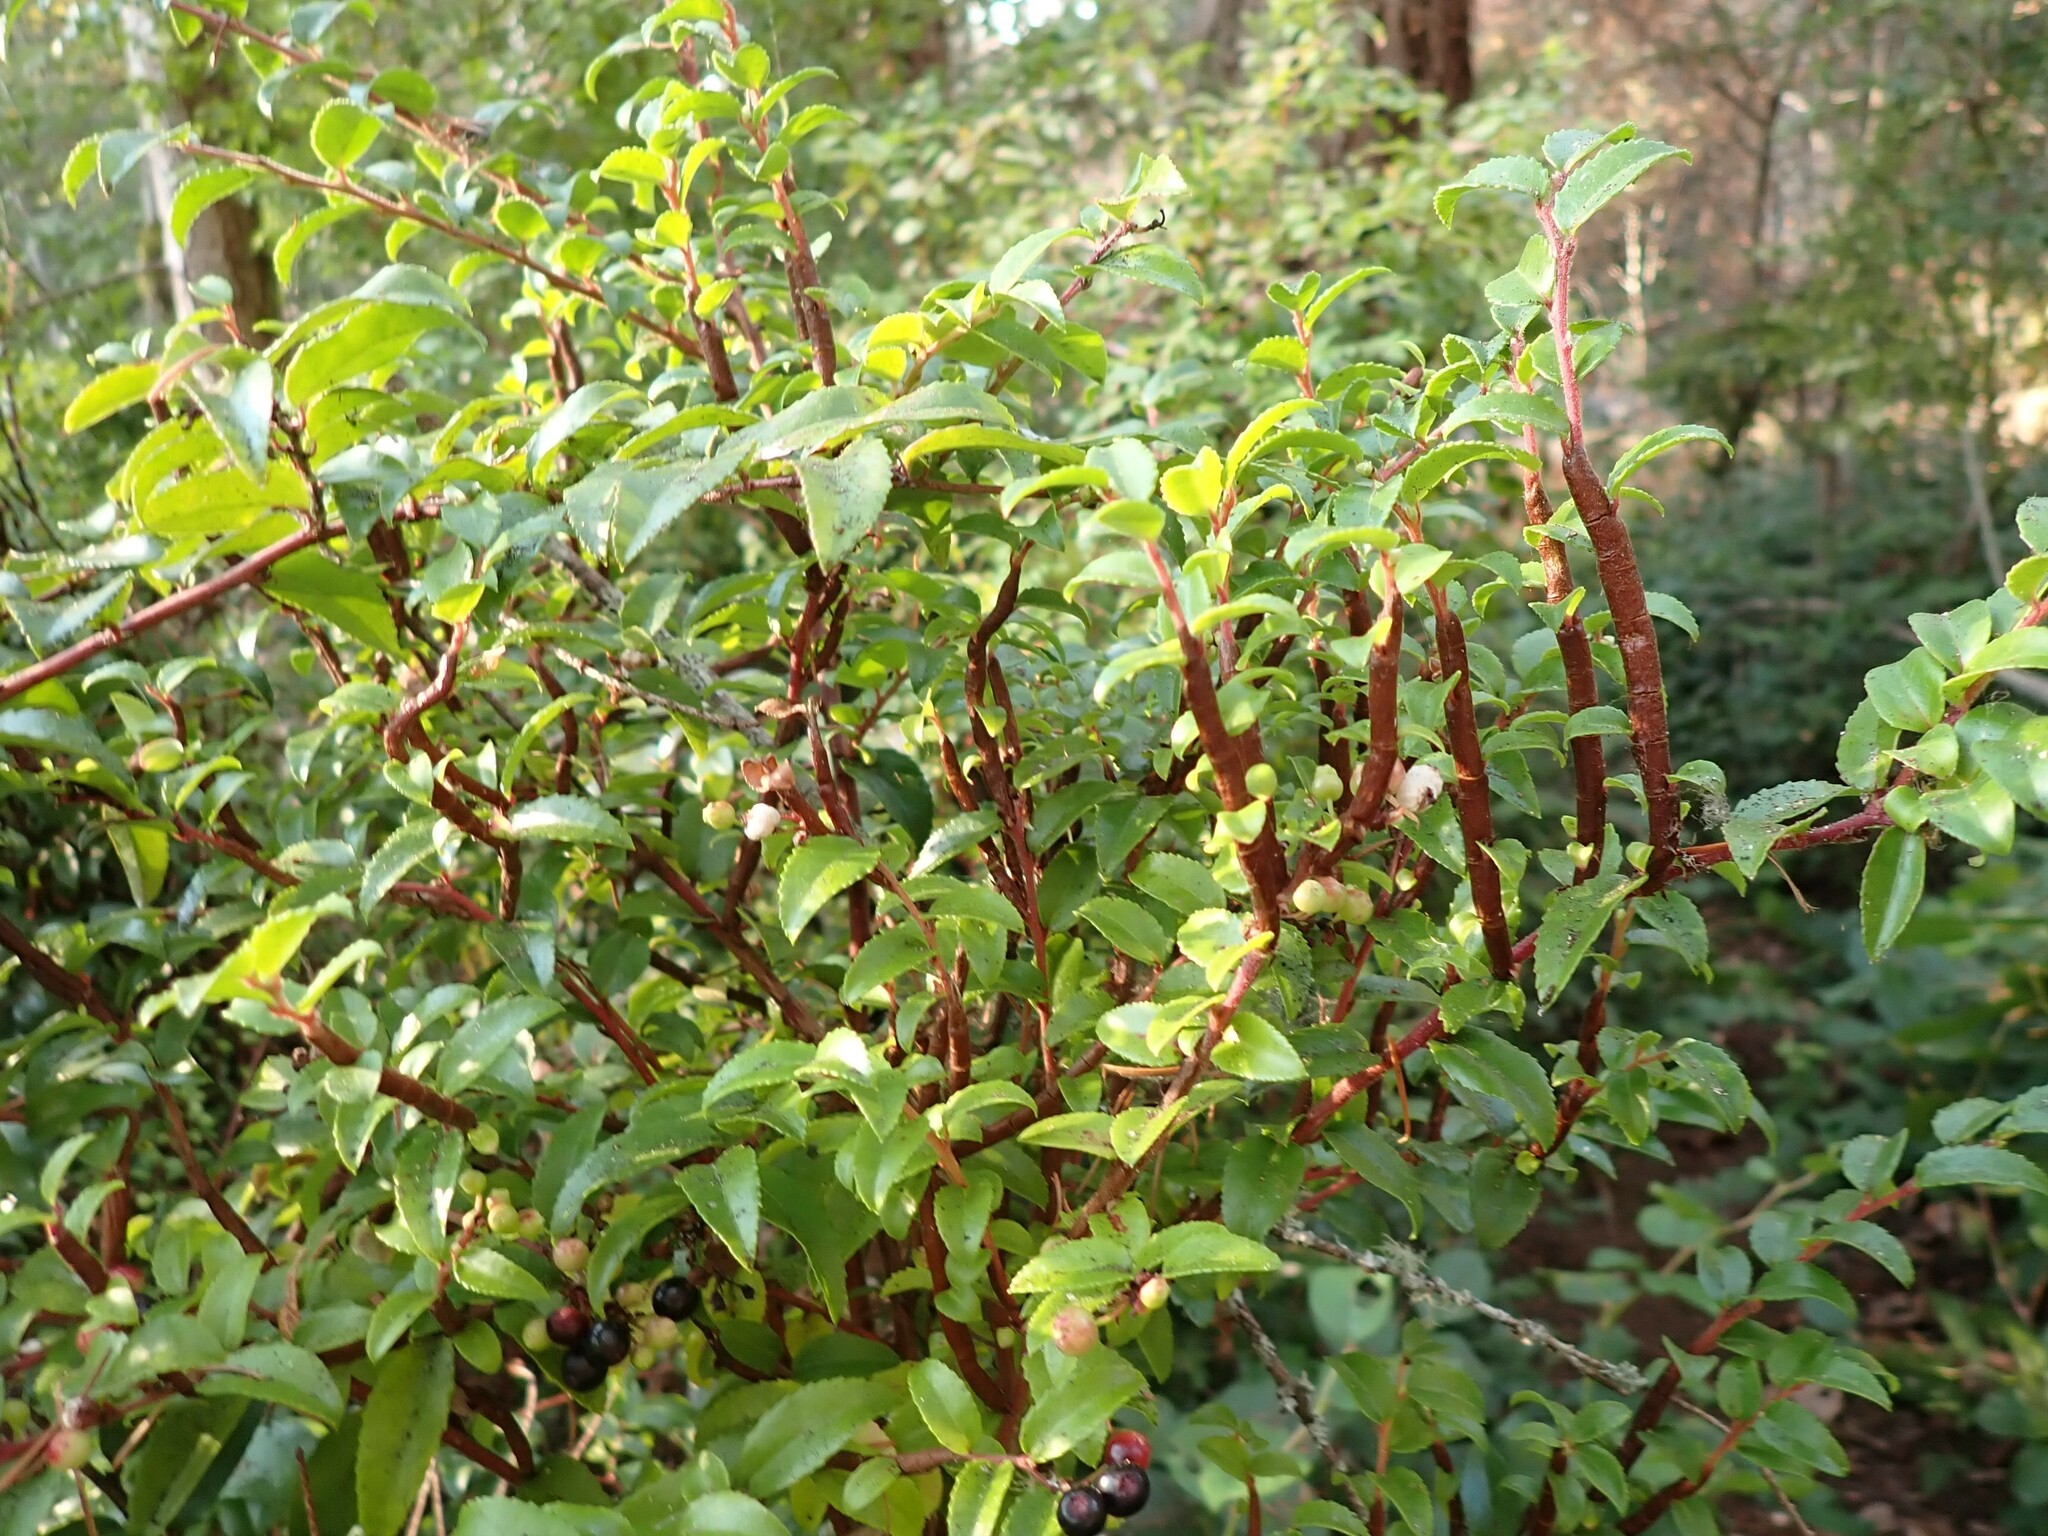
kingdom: Fungi
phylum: Basidiomycota
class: Pucciniomycetes
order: Pucciniales
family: Pucciniastraceae
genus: Calyptospora
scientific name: Calyptospora
